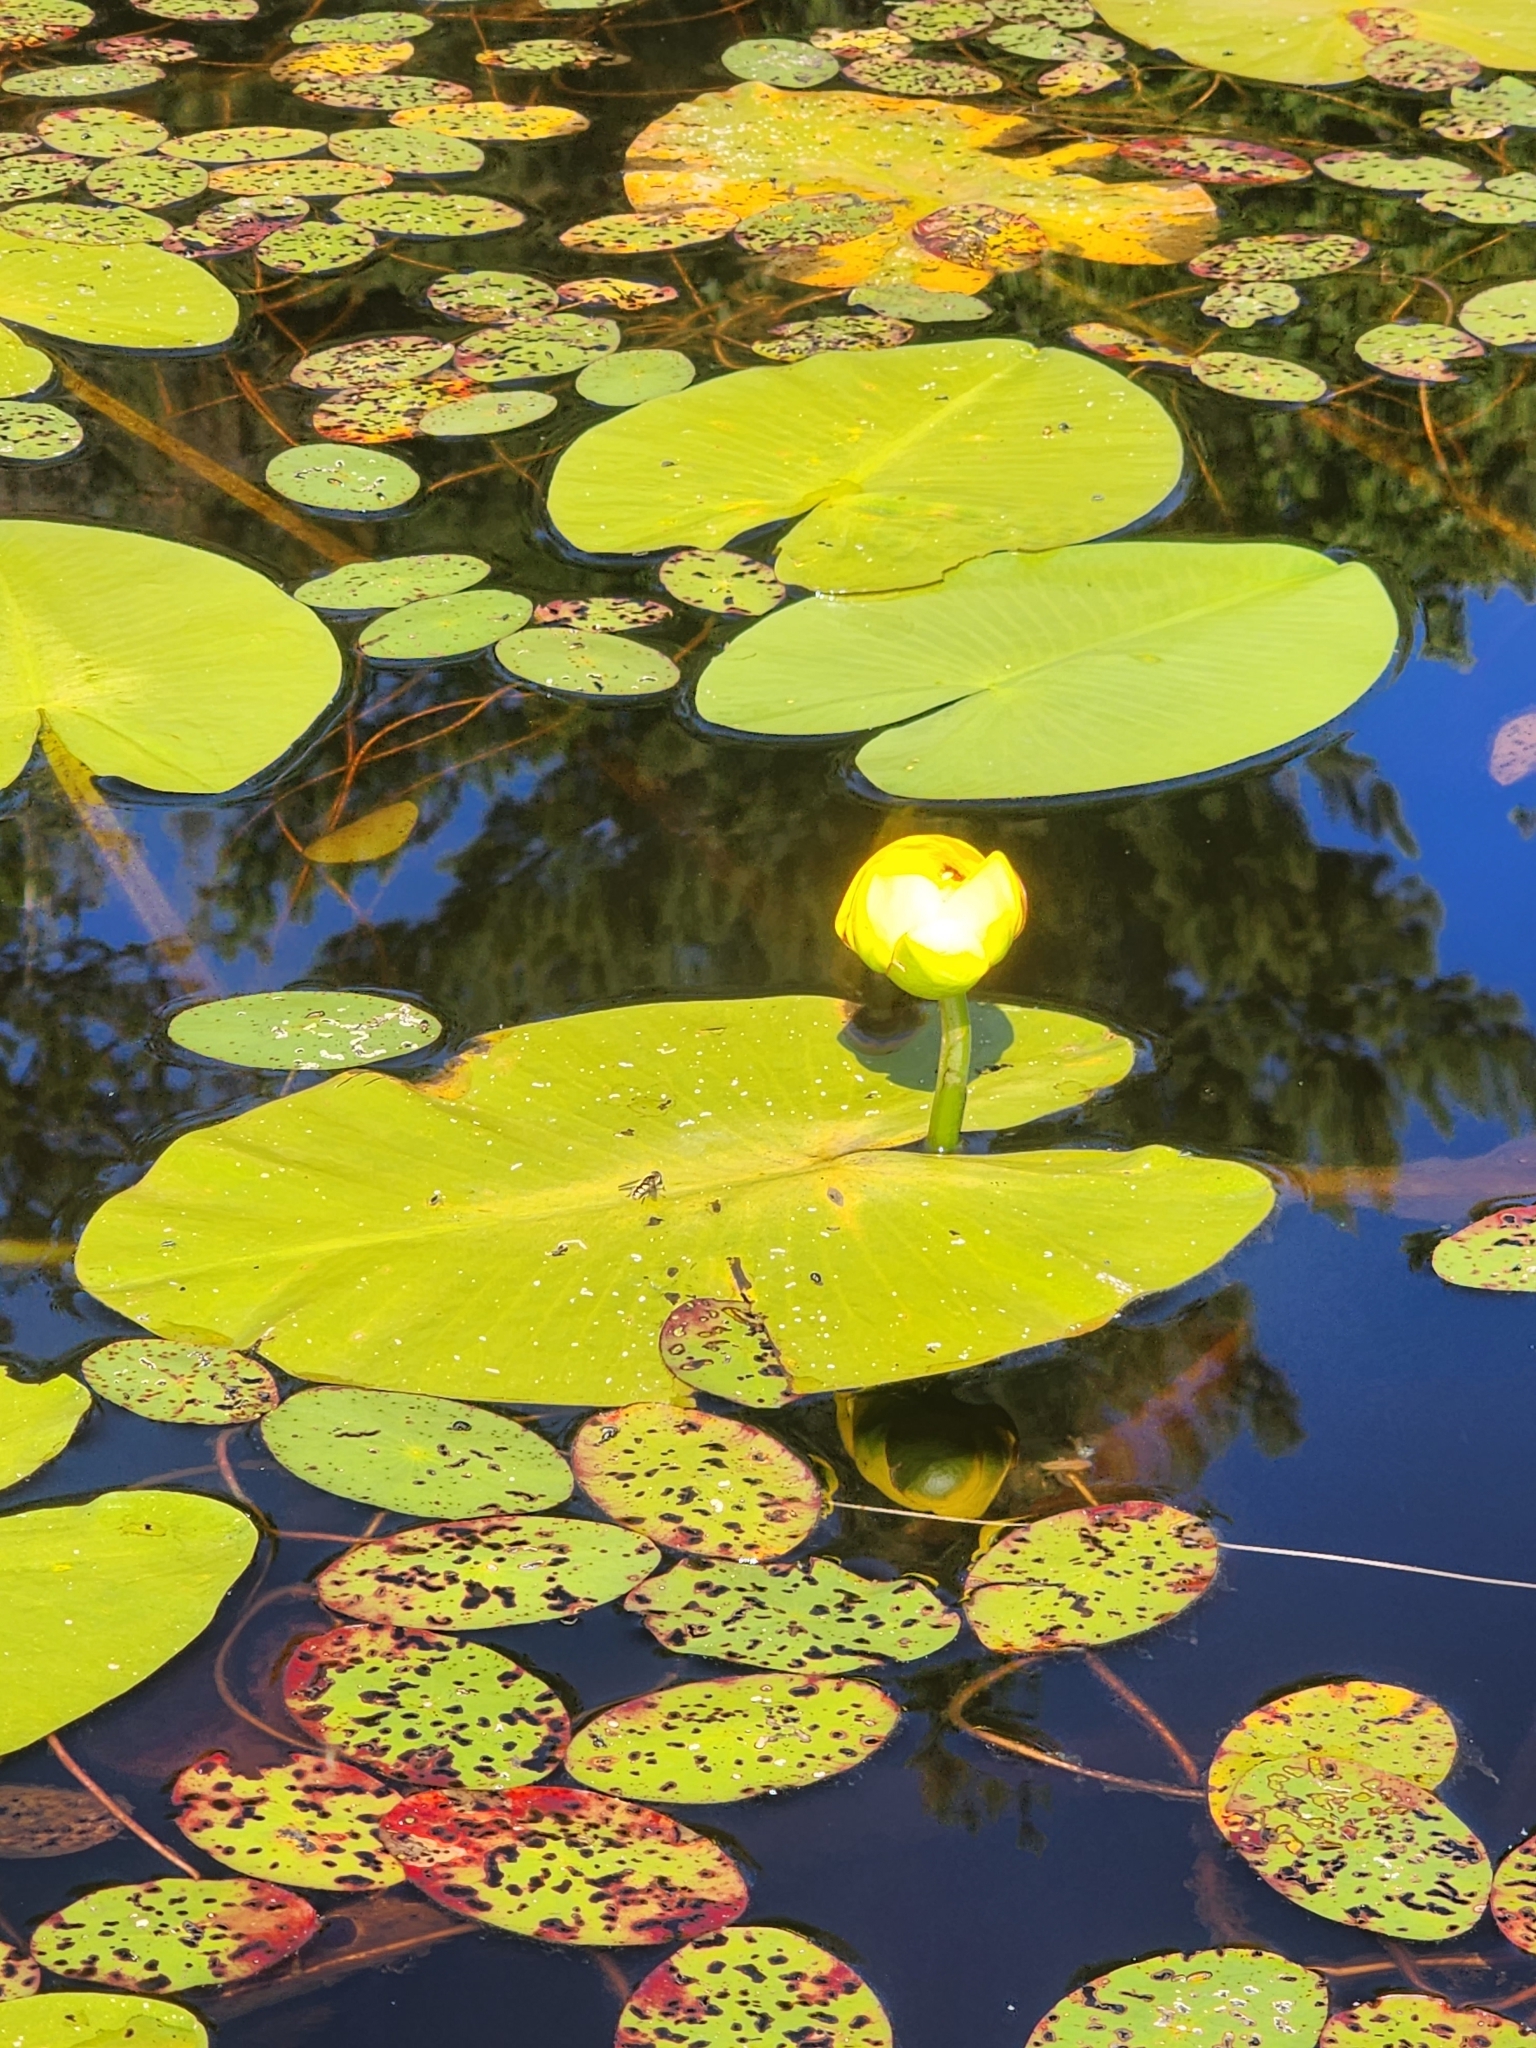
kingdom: Plantae
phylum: Tracheophyta
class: Magnoliopsida
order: Nymphaeales
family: Nymphaeaceae
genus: Nuphar
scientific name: Nuphar variegata
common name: Beaver-root
